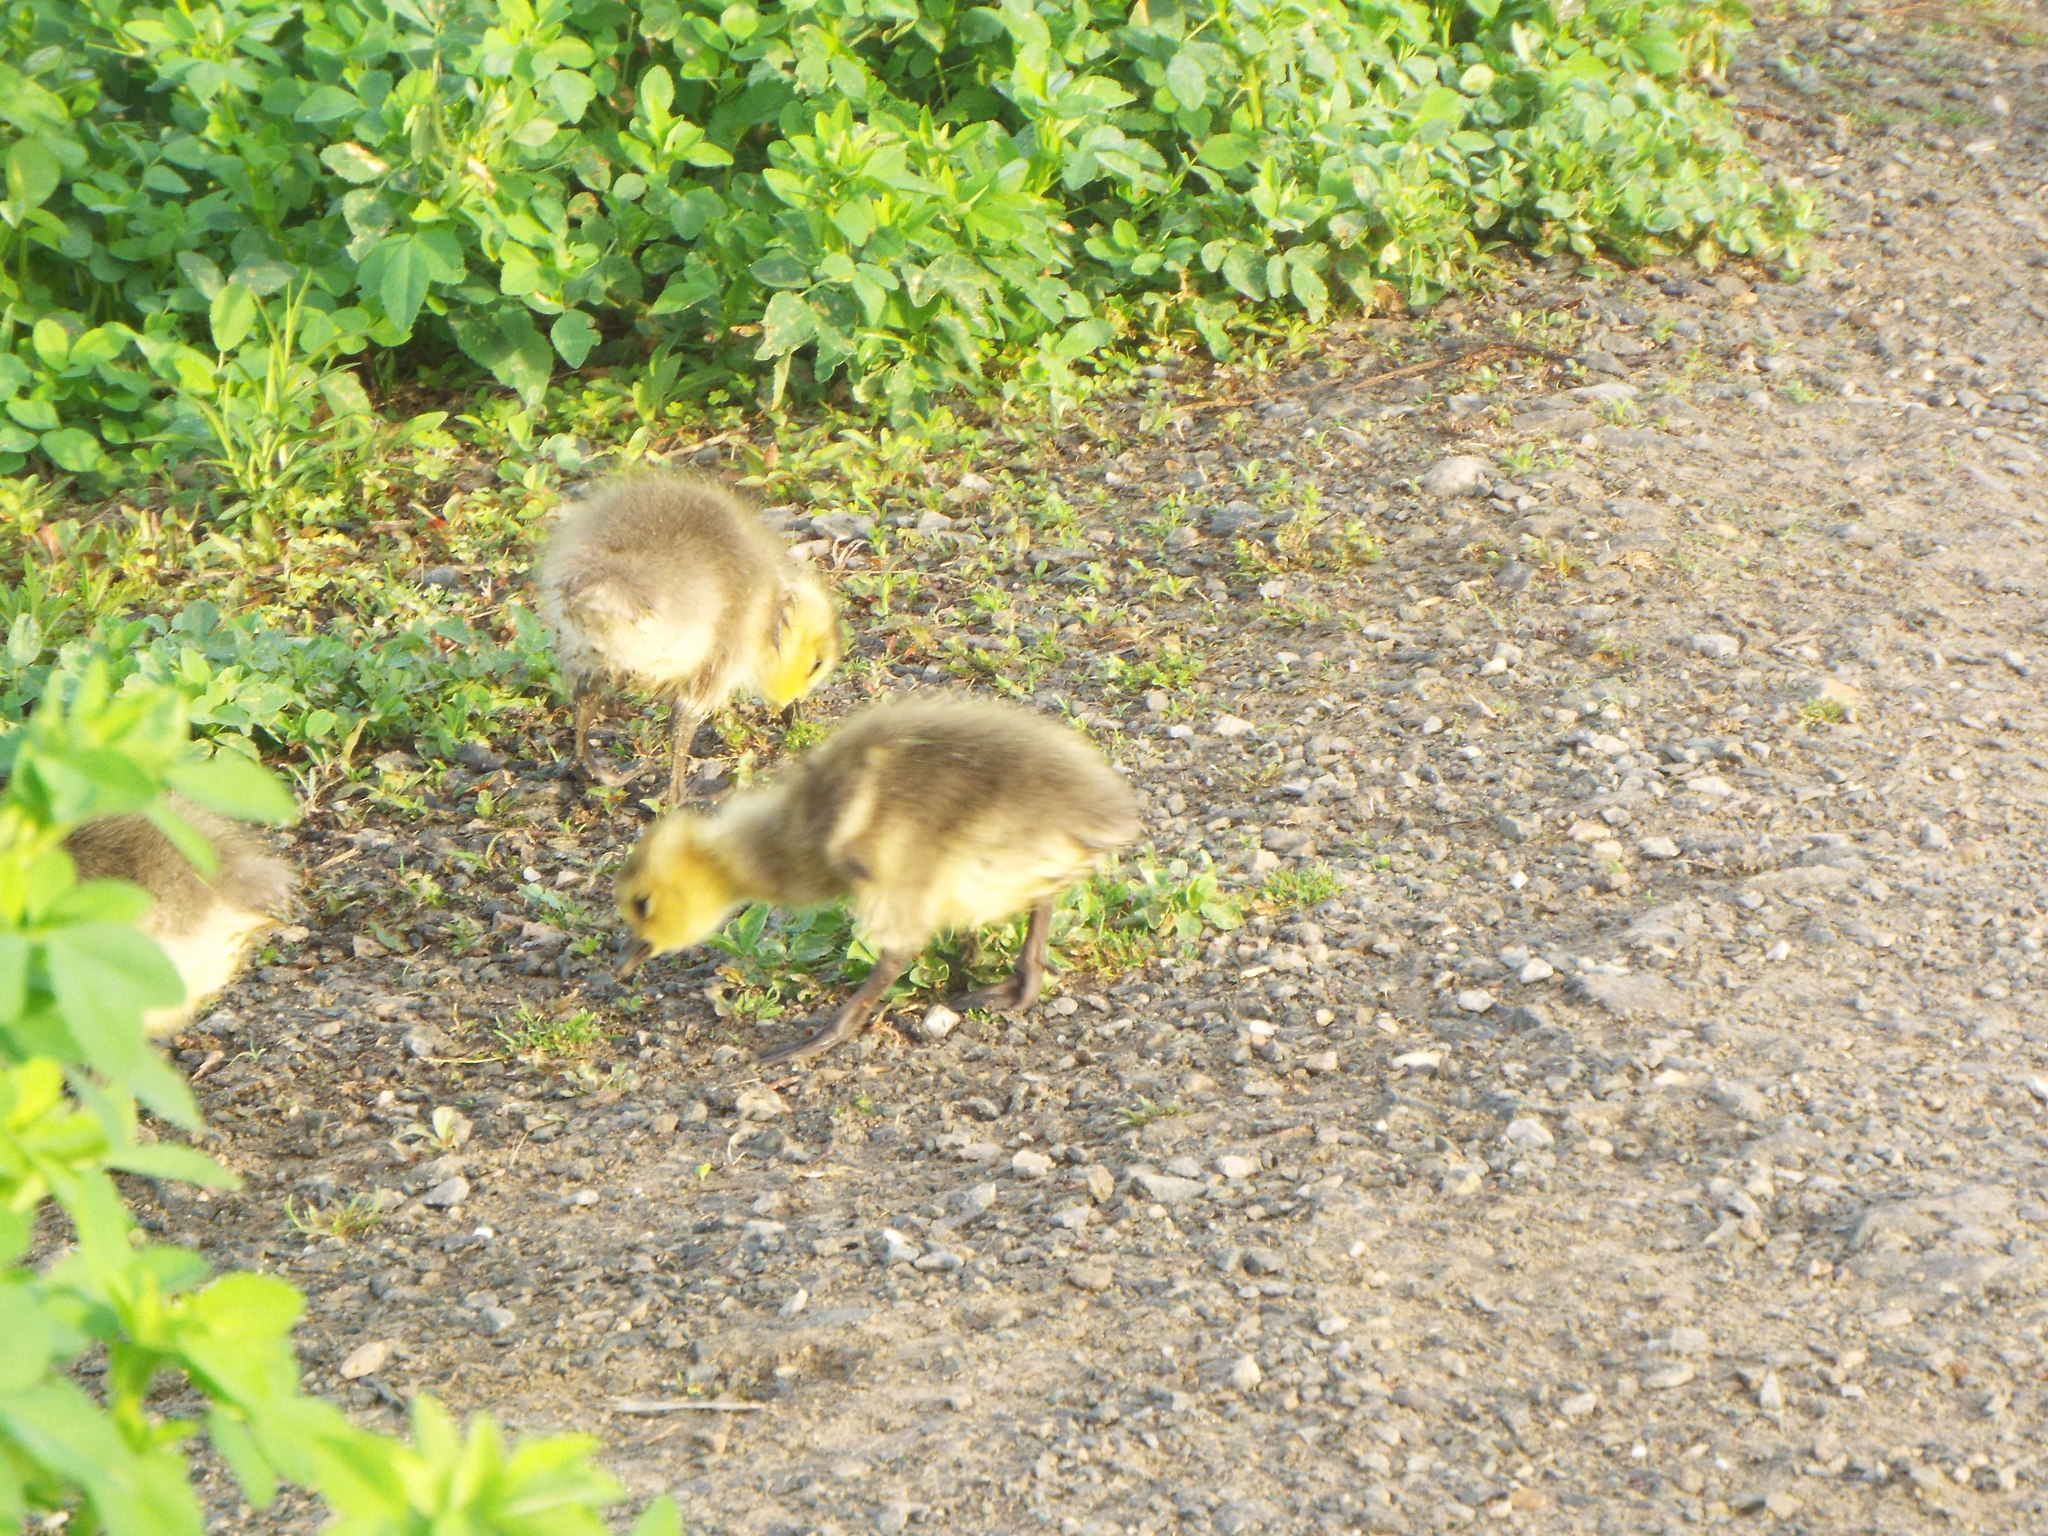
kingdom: Animalia
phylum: Chordata
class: Aves
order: Anseriformes
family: Anatidae
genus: Branta
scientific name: Branta canadensis
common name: Canada goose
